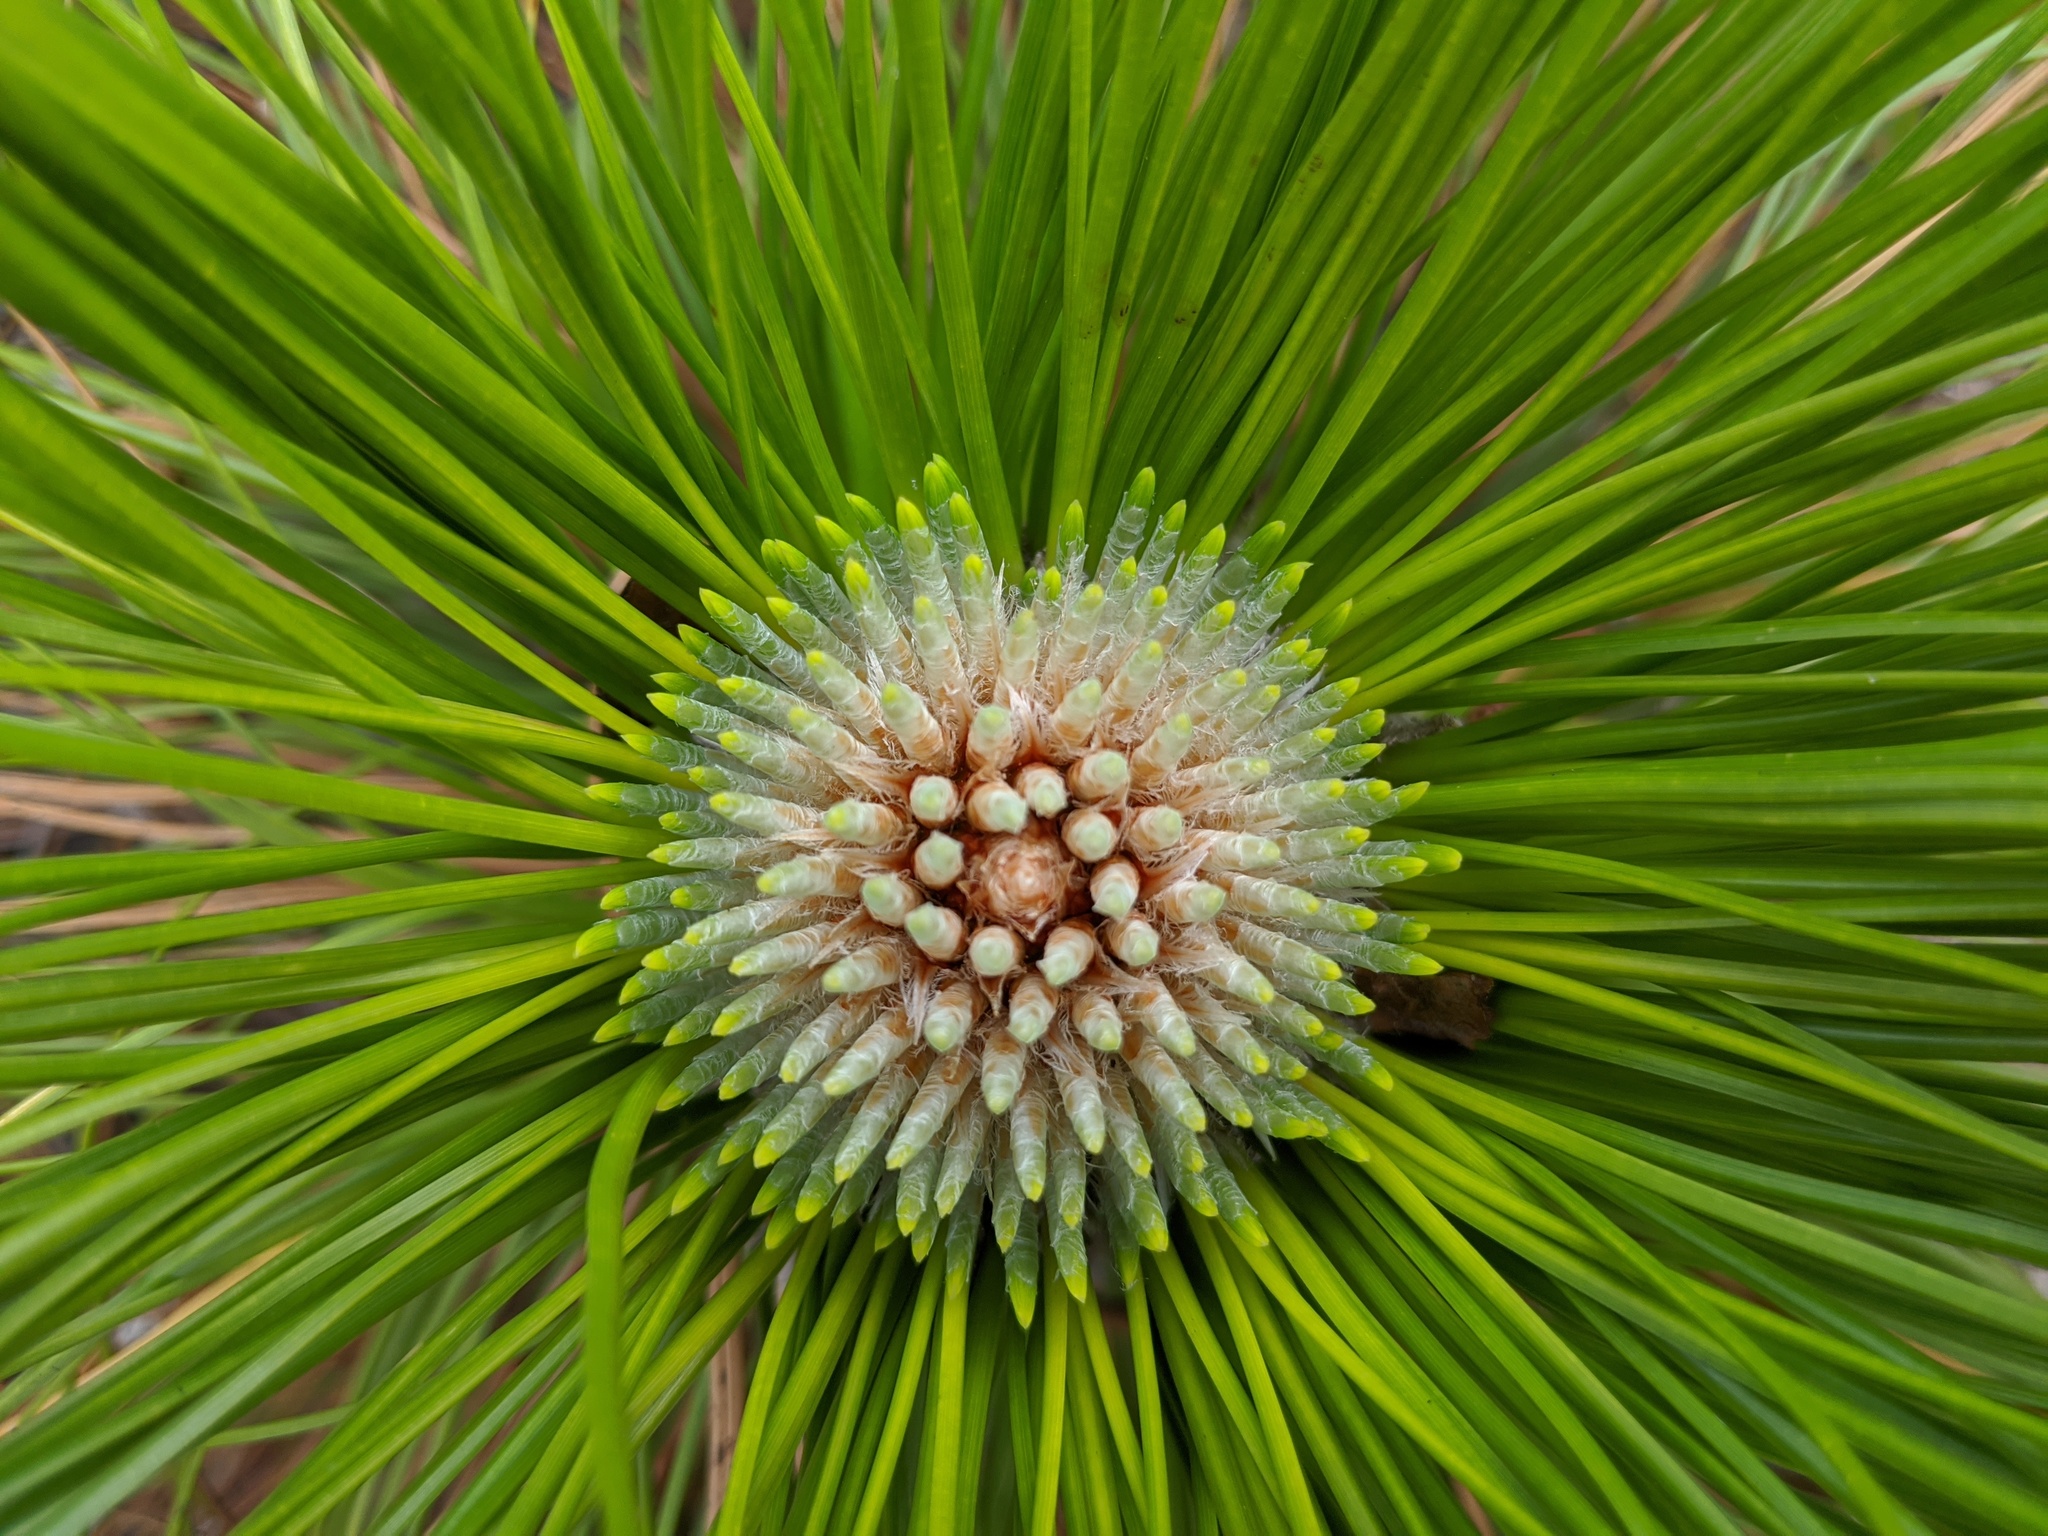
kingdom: Plantae
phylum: Tracheophyta
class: Pinopsida
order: Pinales
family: Pinaceae
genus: Pinus
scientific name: Pinus palustris
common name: Longleaf pine
